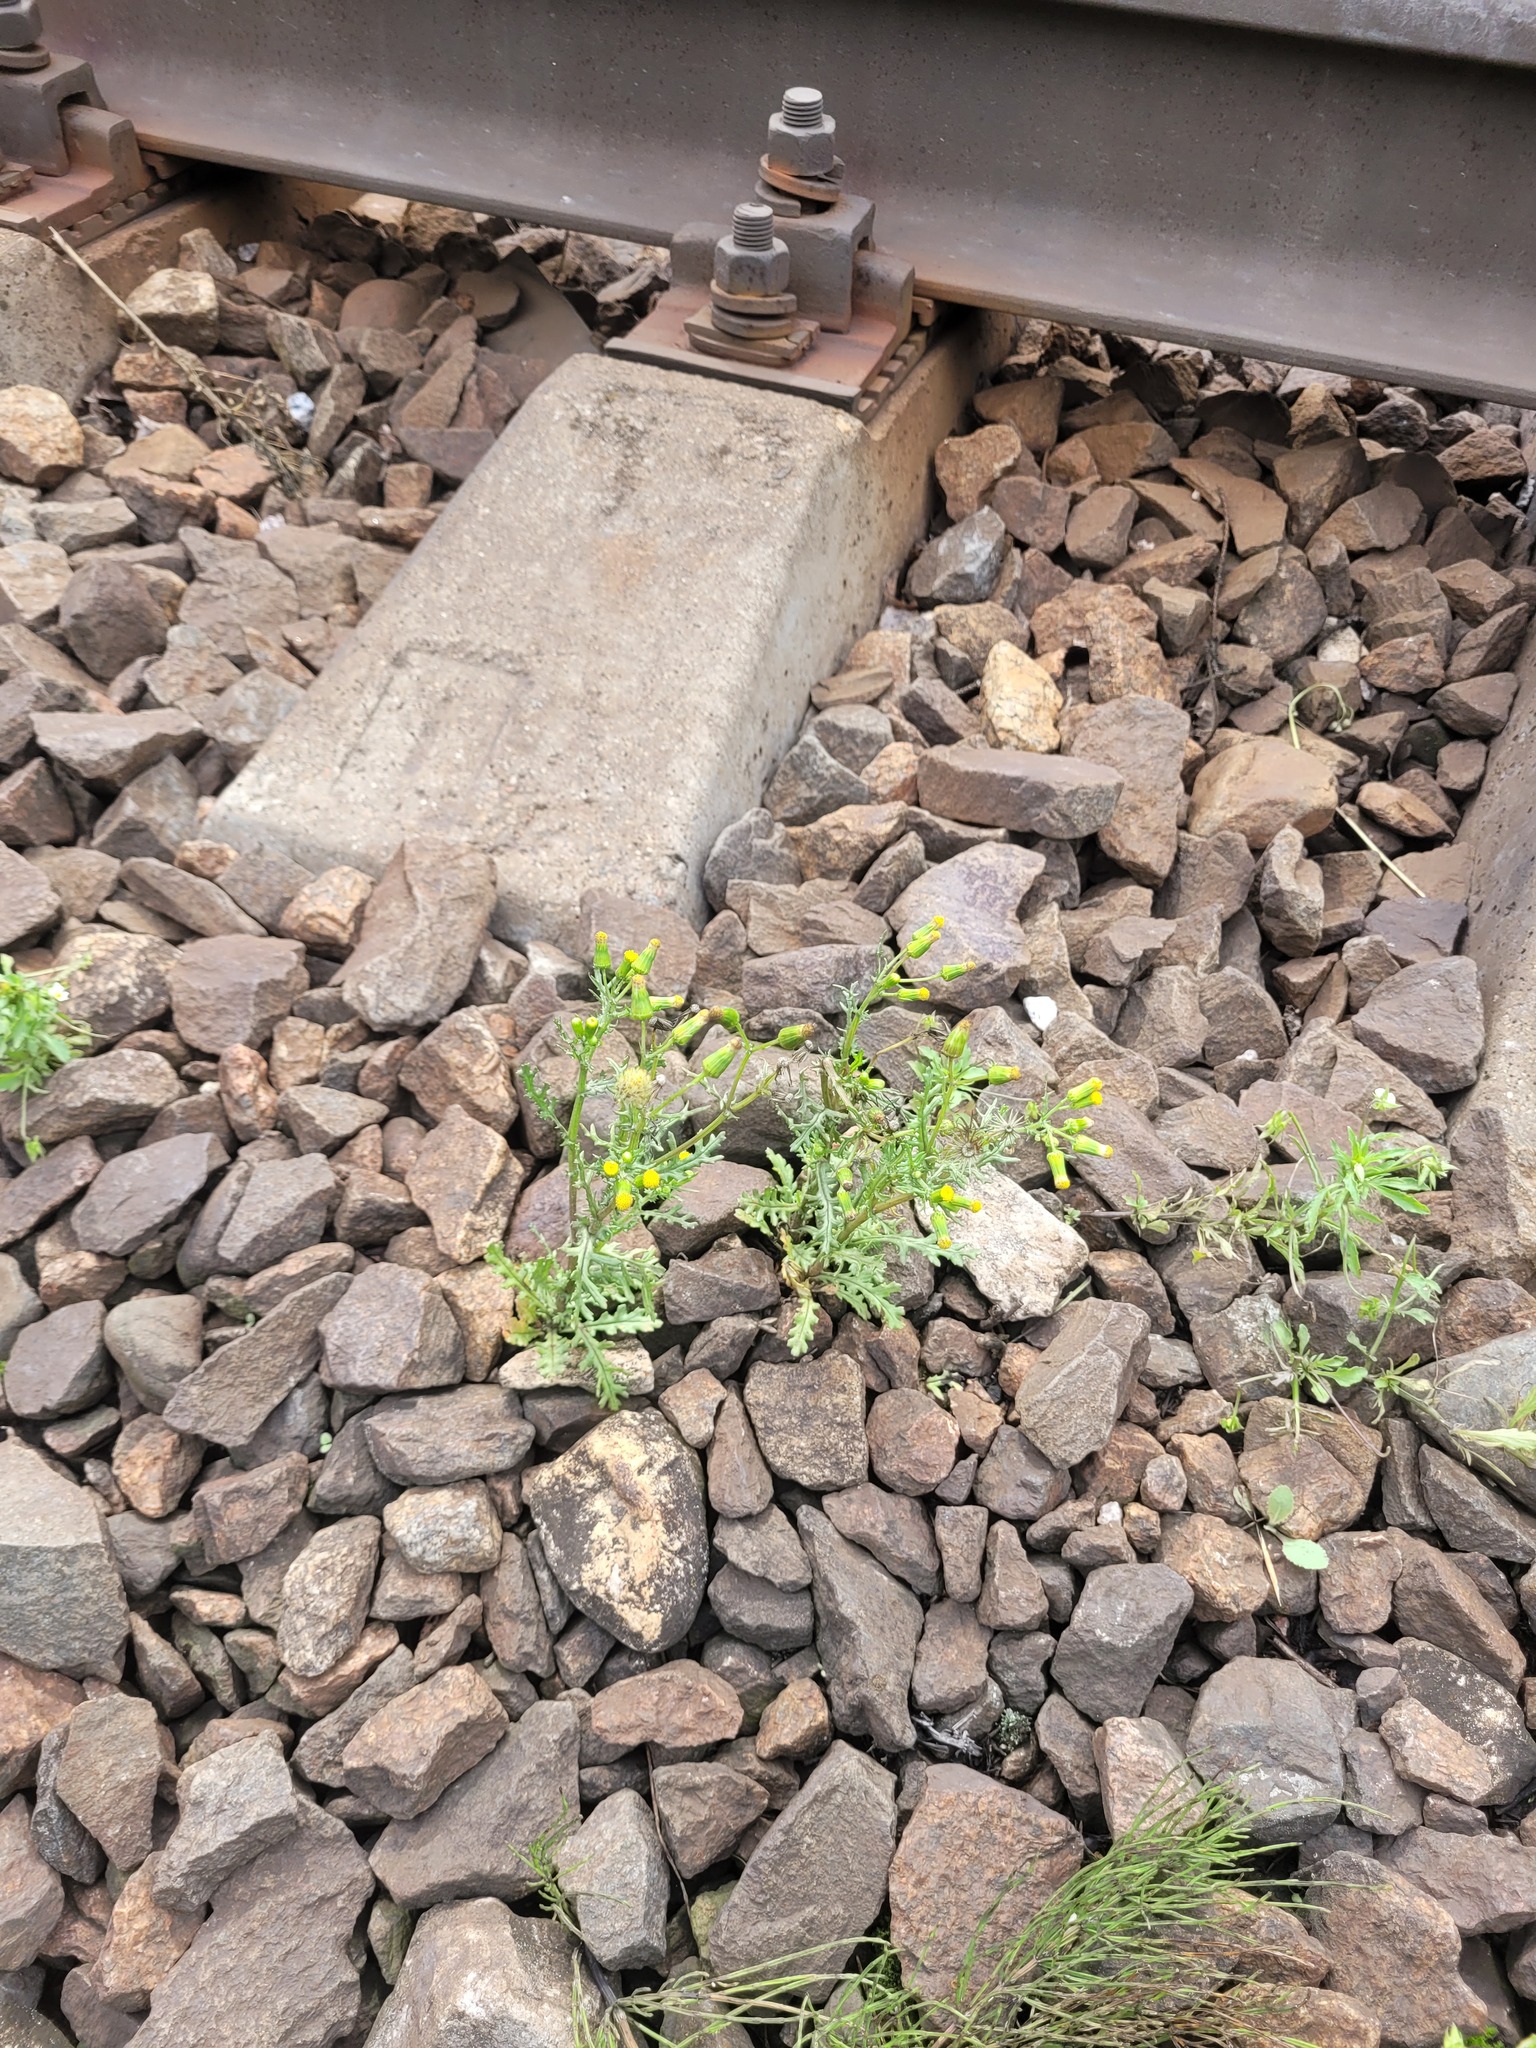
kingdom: Plantae
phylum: Tracheophyta
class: Magnoliopsida
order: Asterales
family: Asteraceae
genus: Senecio
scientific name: Senecio vulgaris
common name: Old-man-in-the-spring
